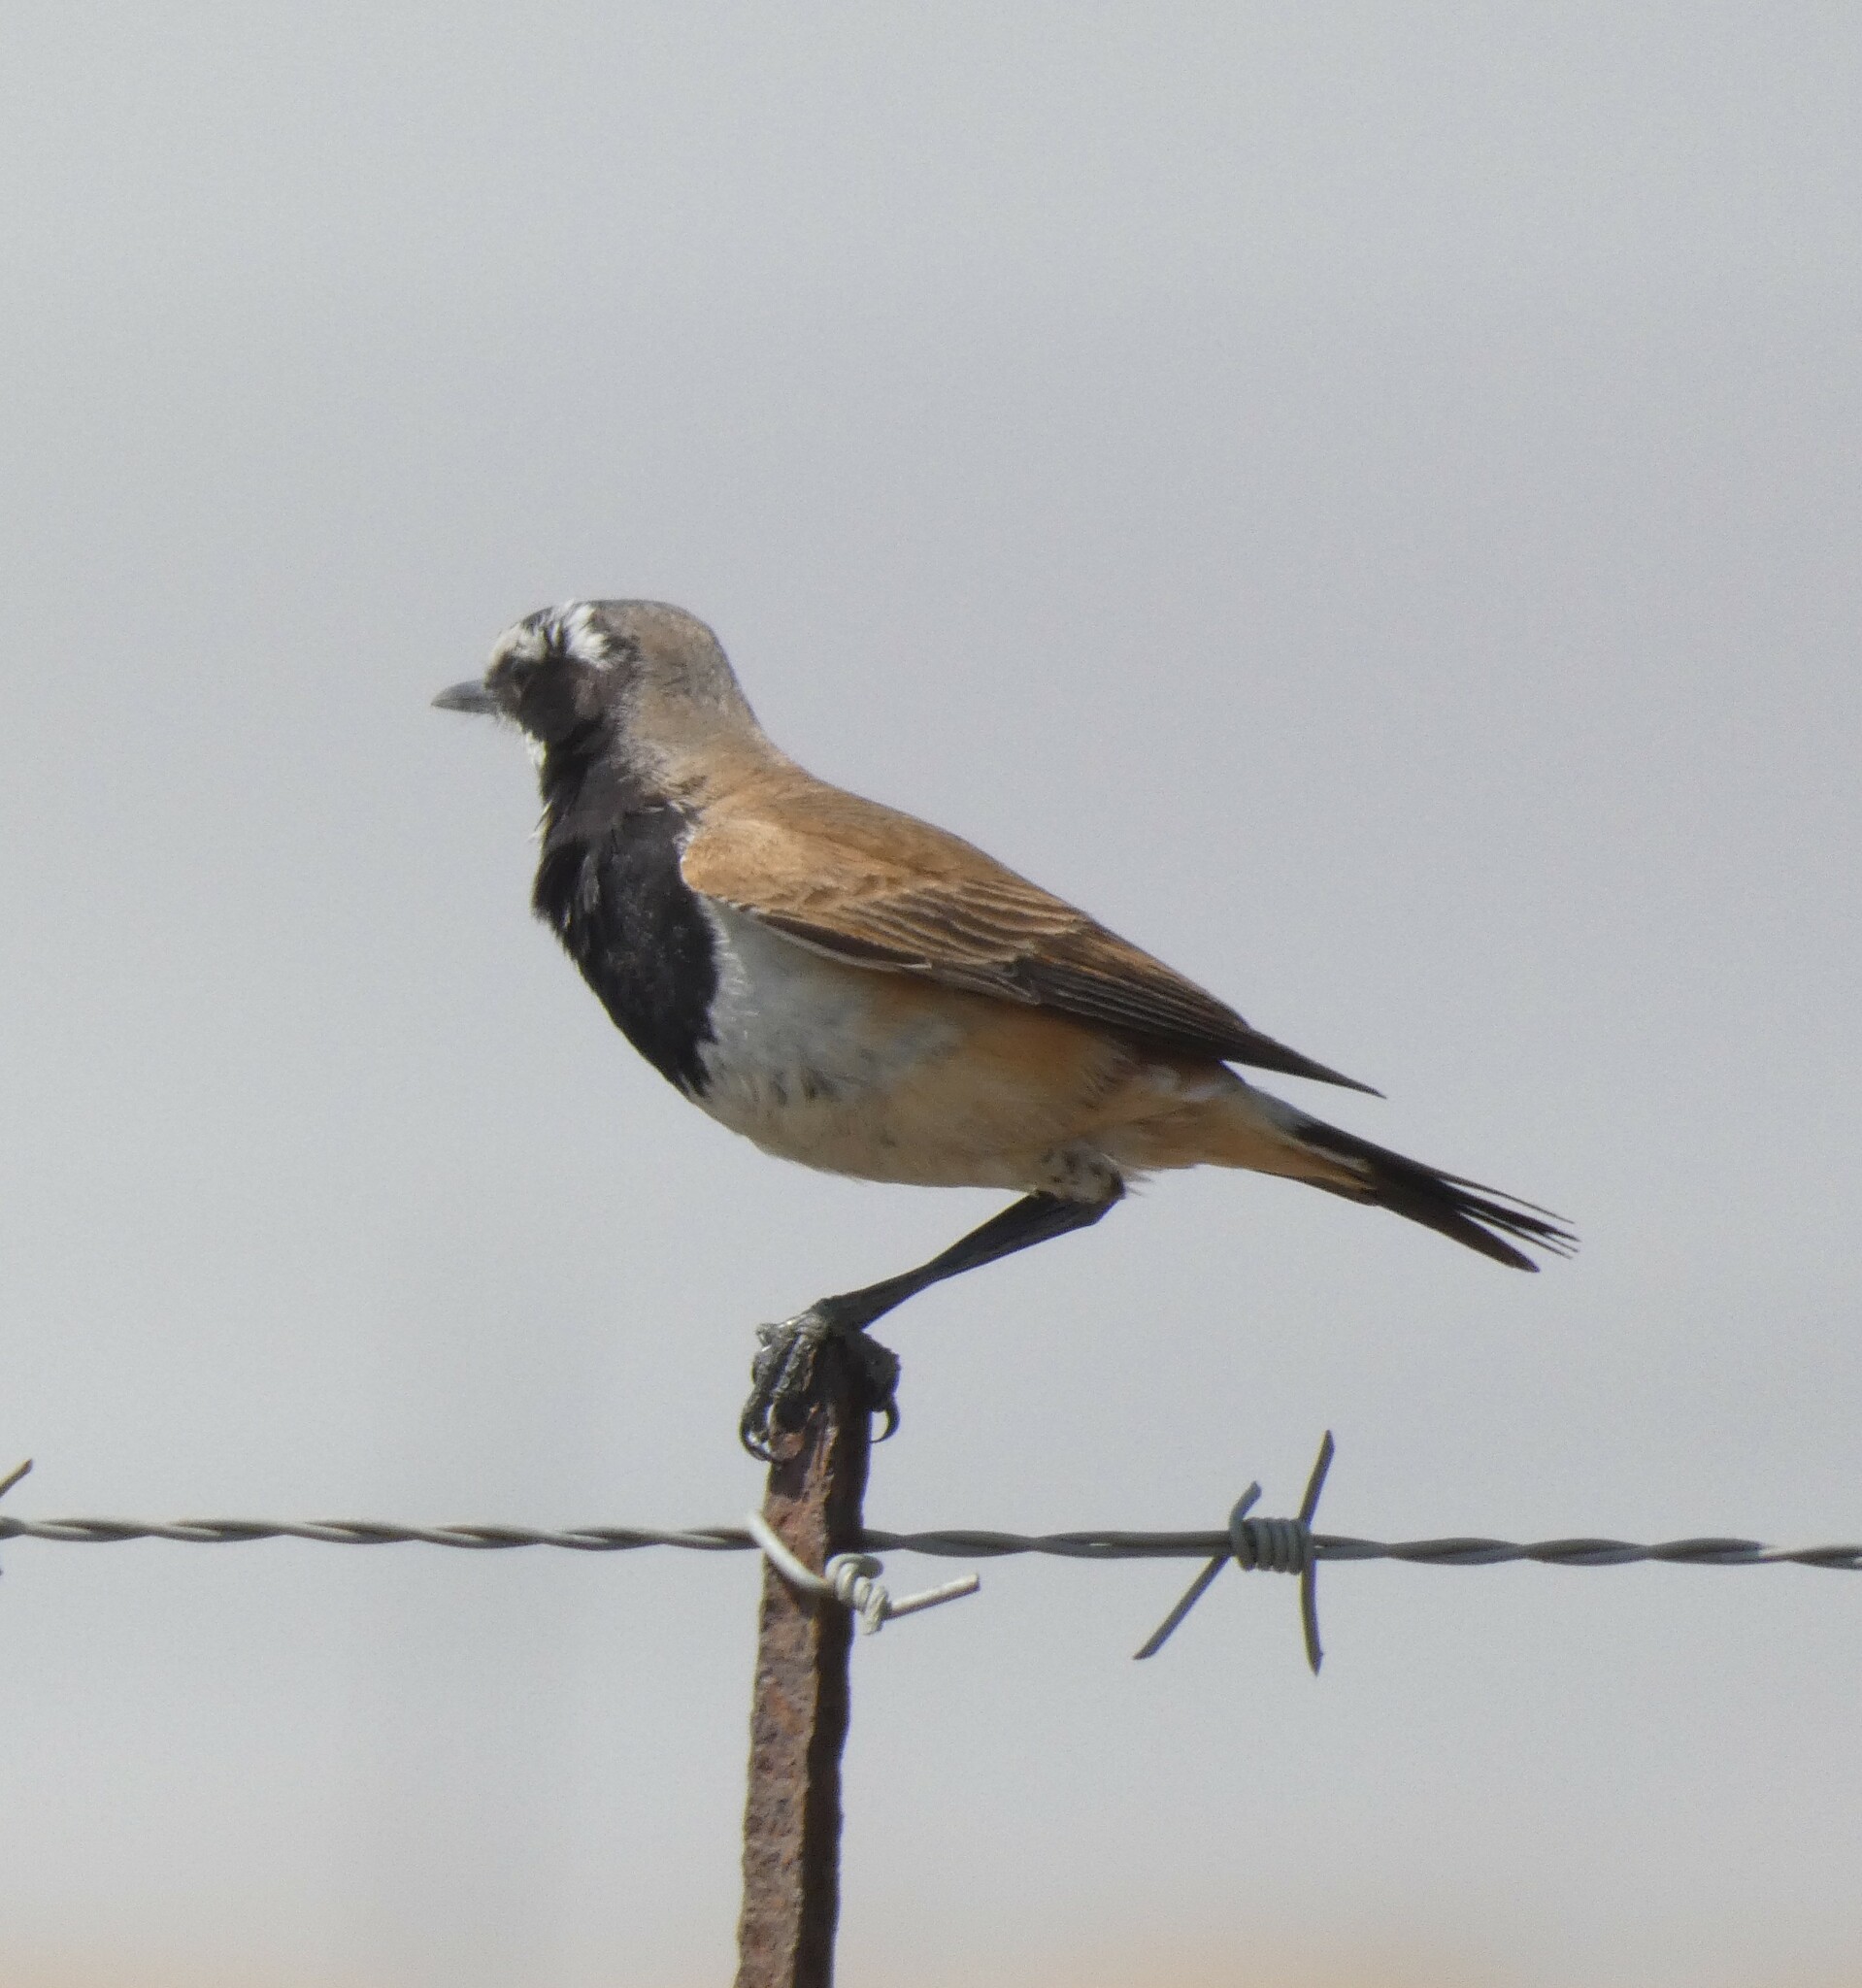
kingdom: Animalia
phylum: Chordata
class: Aves
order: Passeriformes
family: Muscicapidae
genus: Oenanthe
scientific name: Oenanthe pileata
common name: Capped wheatear
